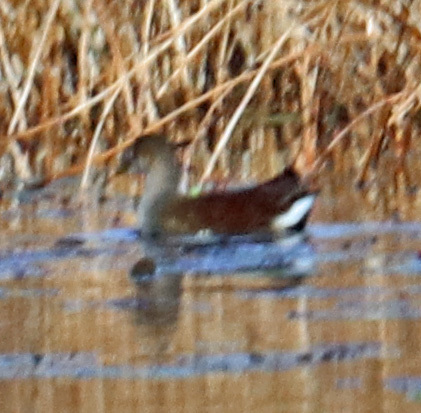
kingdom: Animalia
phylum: Chordata
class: Aves
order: Gruiformes
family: Rallidae
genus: Gallinula
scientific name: Gallinula chloropus
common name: Common moorhen
